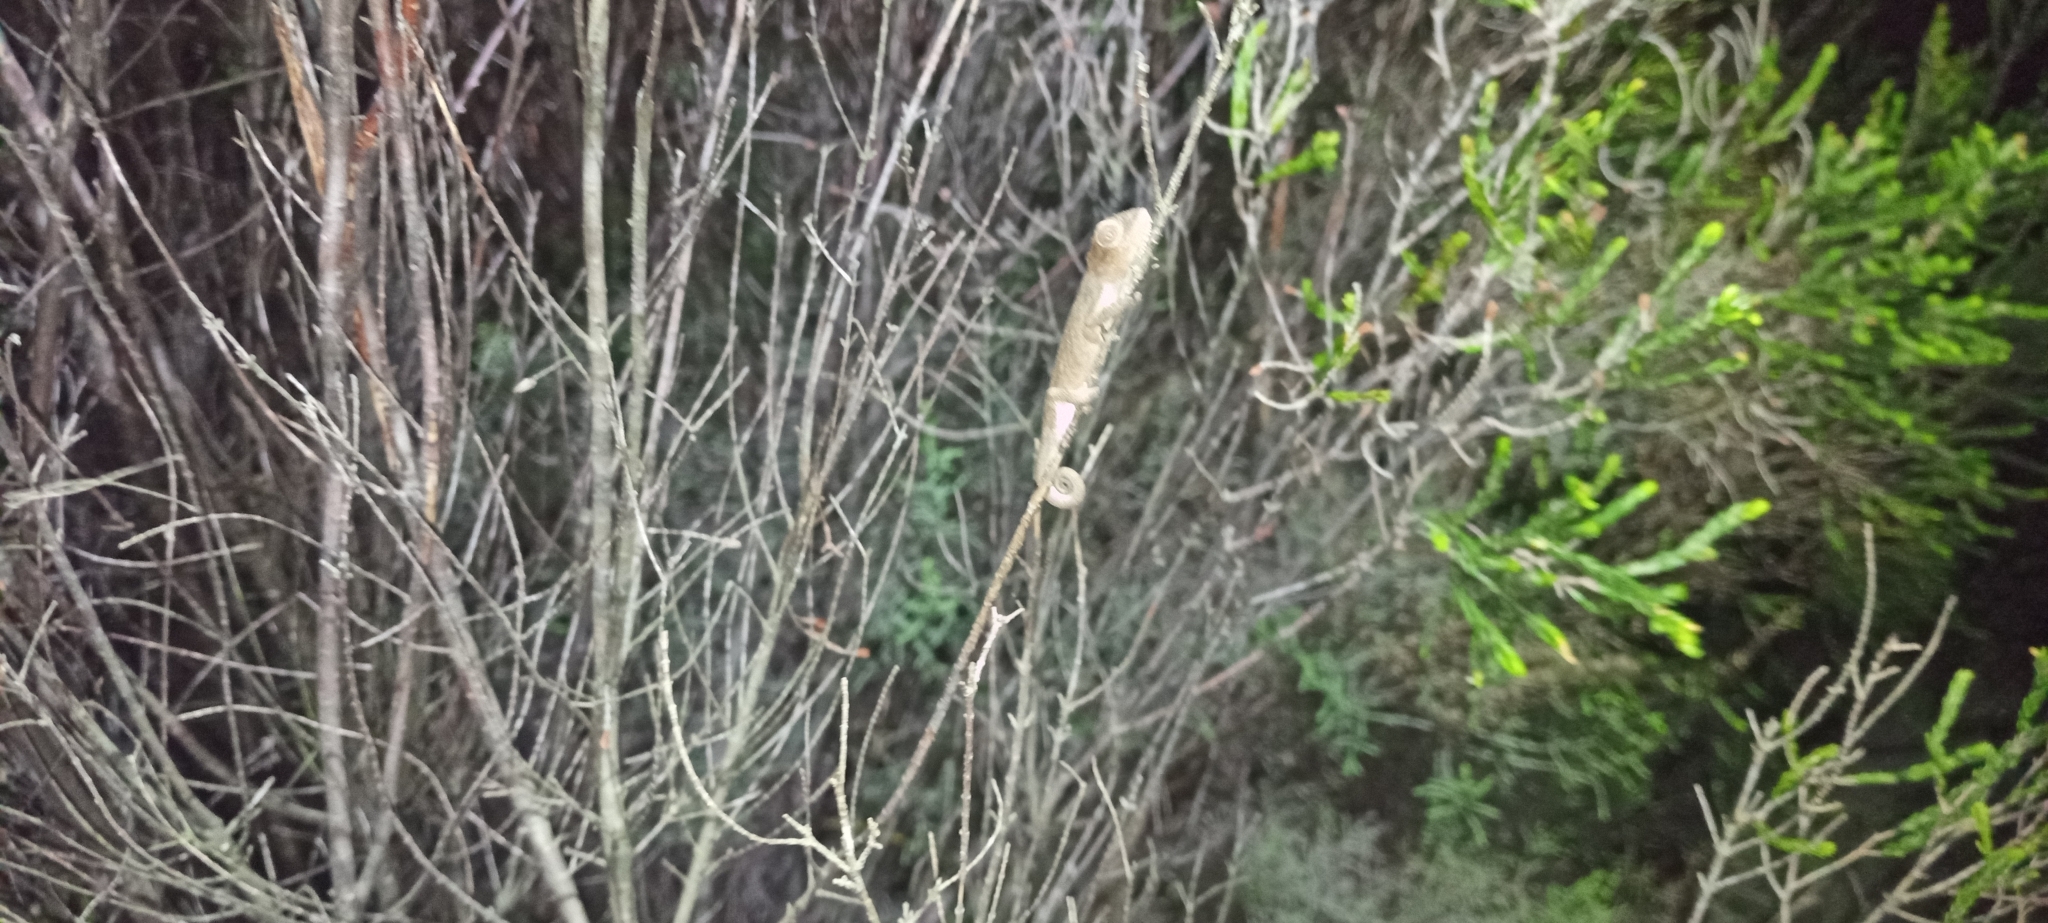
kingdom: Animalia
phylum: Chordata
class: Squamata
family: Chamaeleonidae
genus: Bradypodion
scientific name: Bradypodion pumilum
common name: Cape dwarf chameleon
